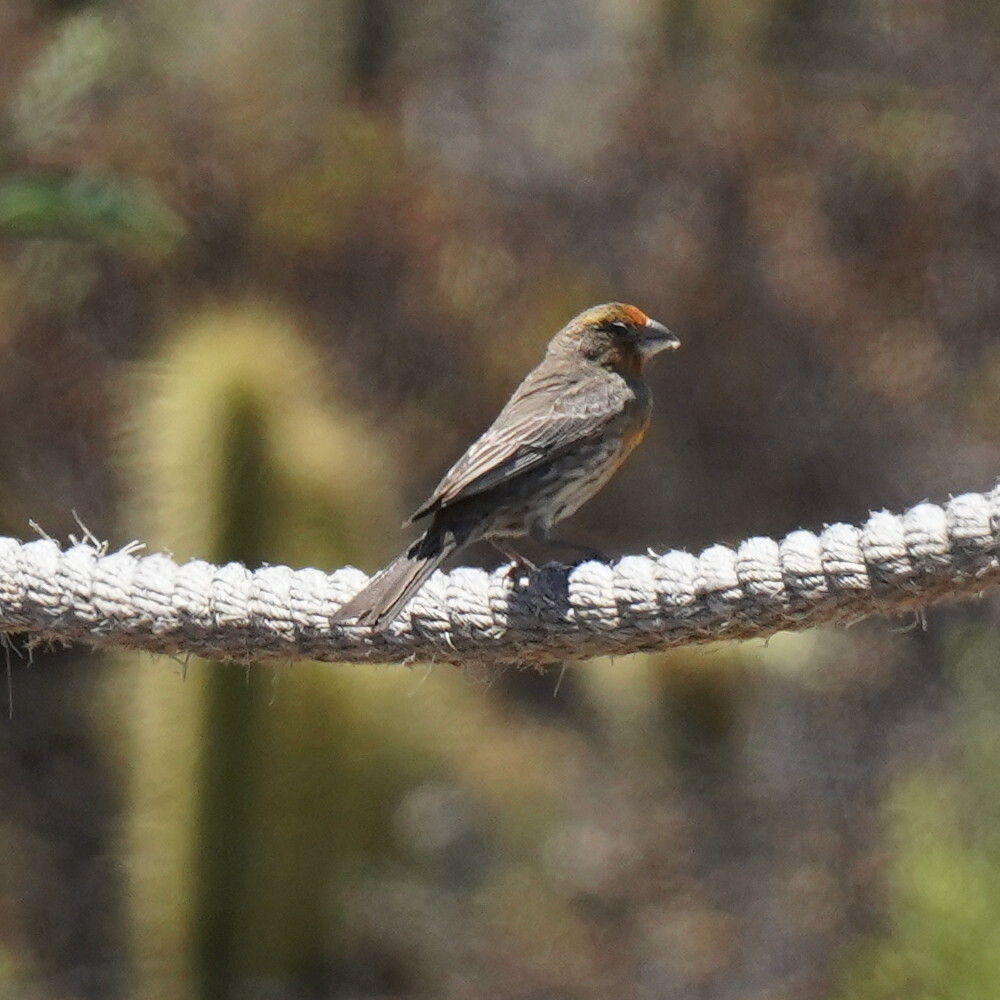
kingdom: Animalia
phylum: Chordata
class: Aves
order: Passeriformes
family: Fringillidae
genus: Haemorhous
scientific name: Haemorhous mexicanus
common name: House finch
